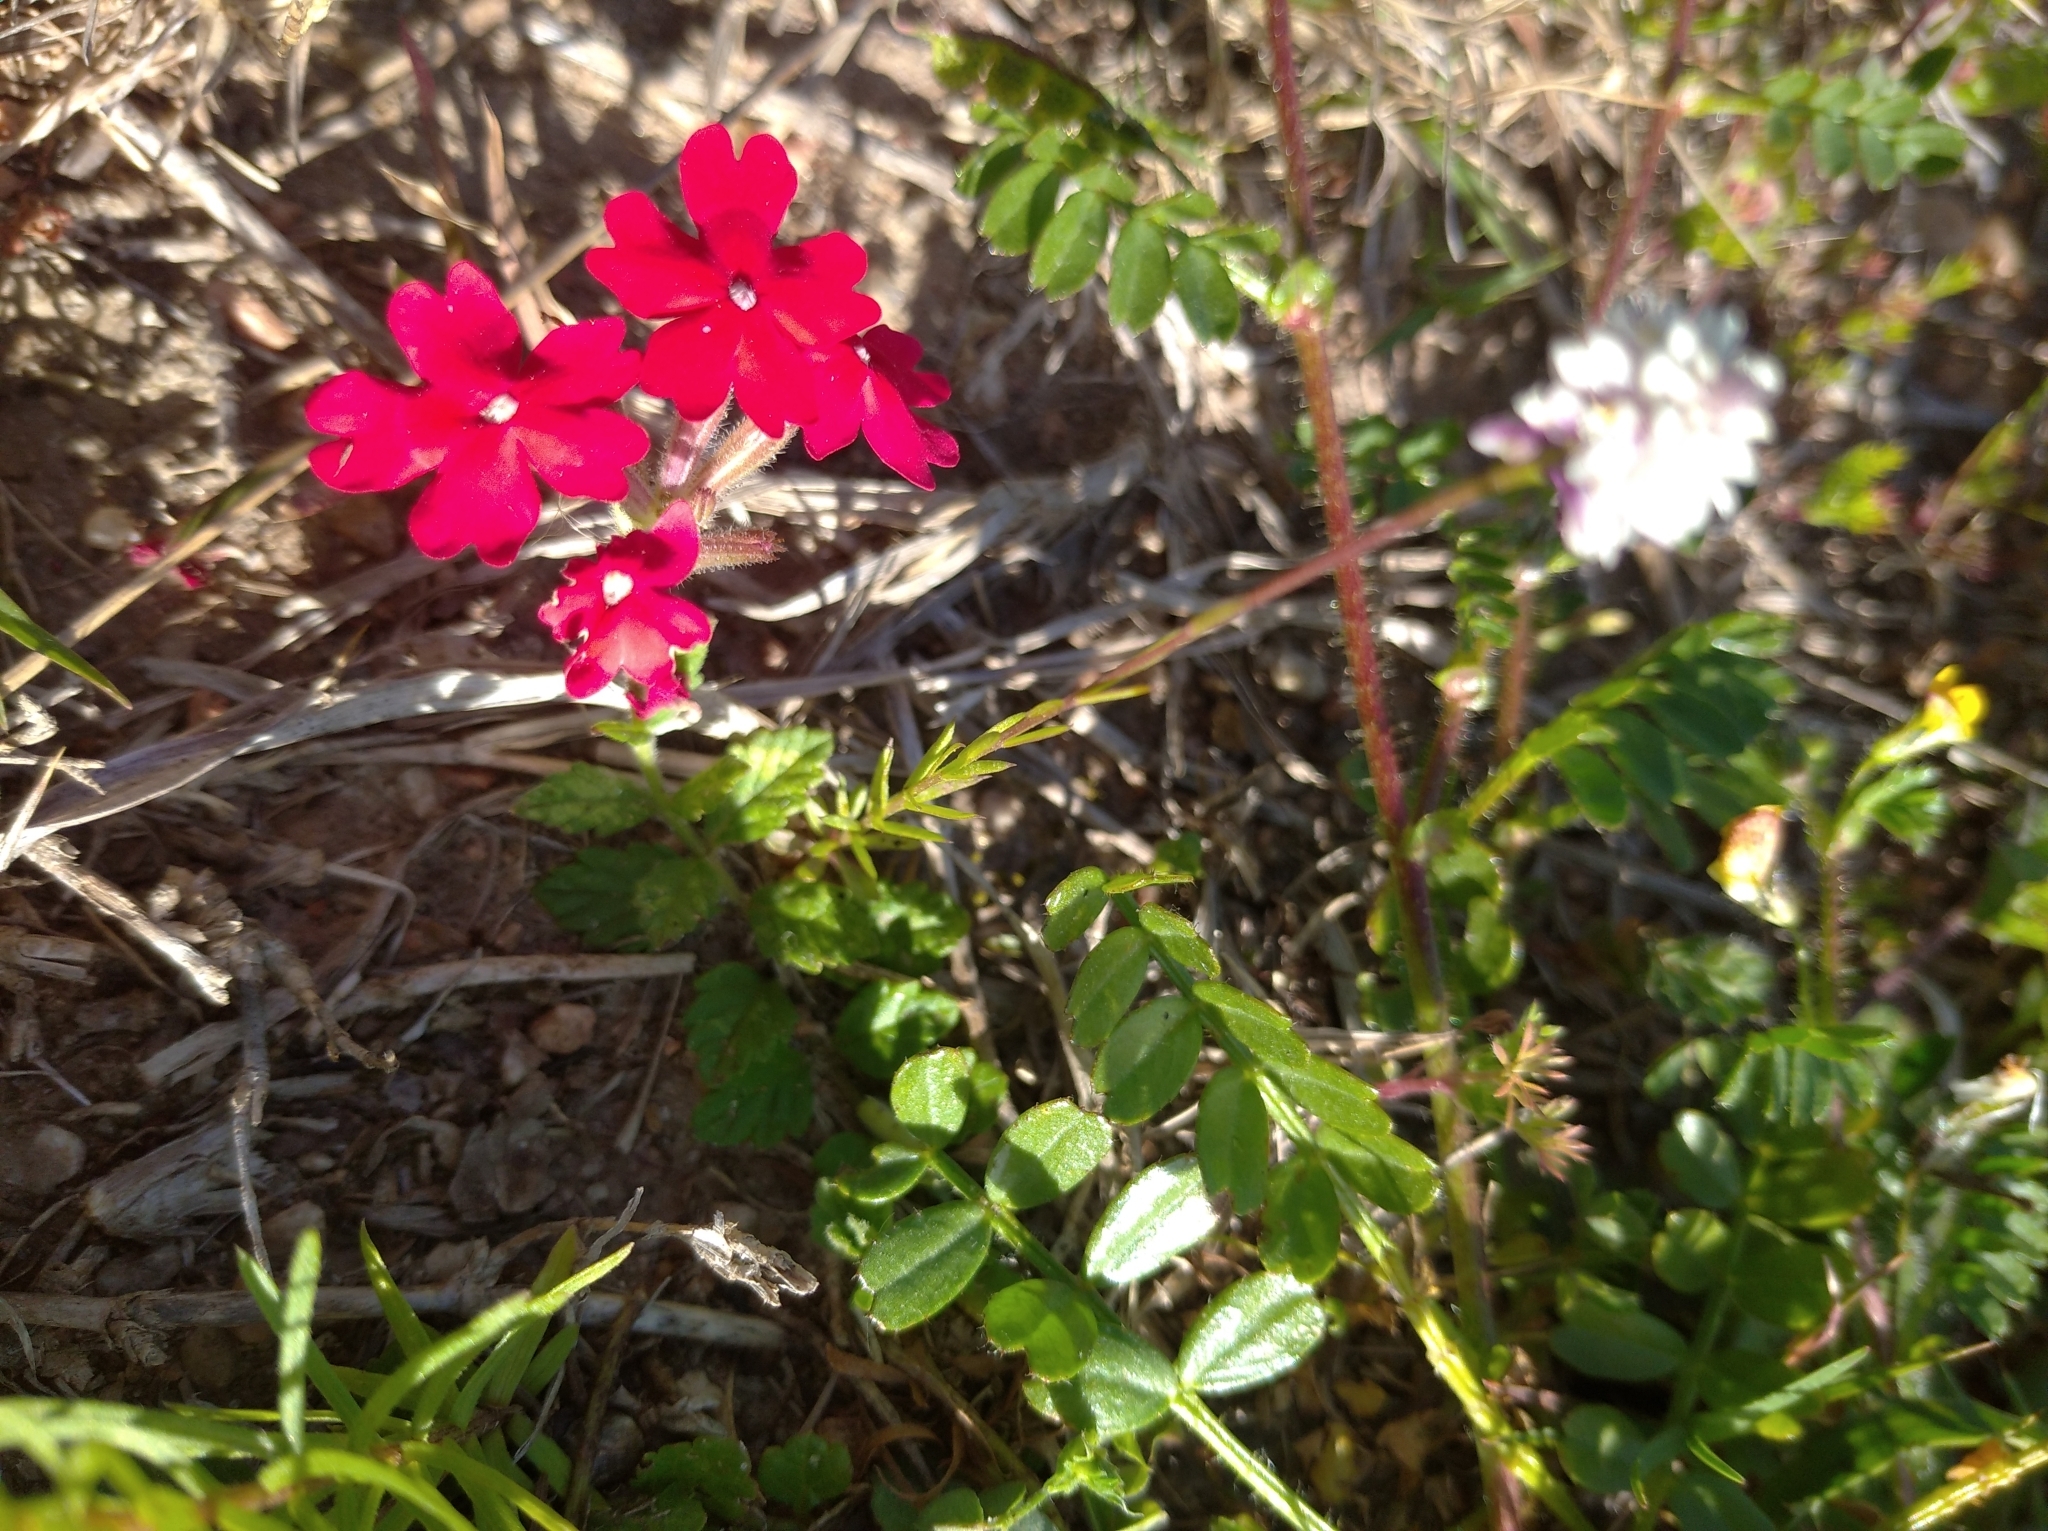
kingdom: Plantae
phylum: Tracheophyta
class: Magnoliopsida
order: Lamiales
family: Verbenaceae
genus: Verbena
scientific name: Verbena peruviana
